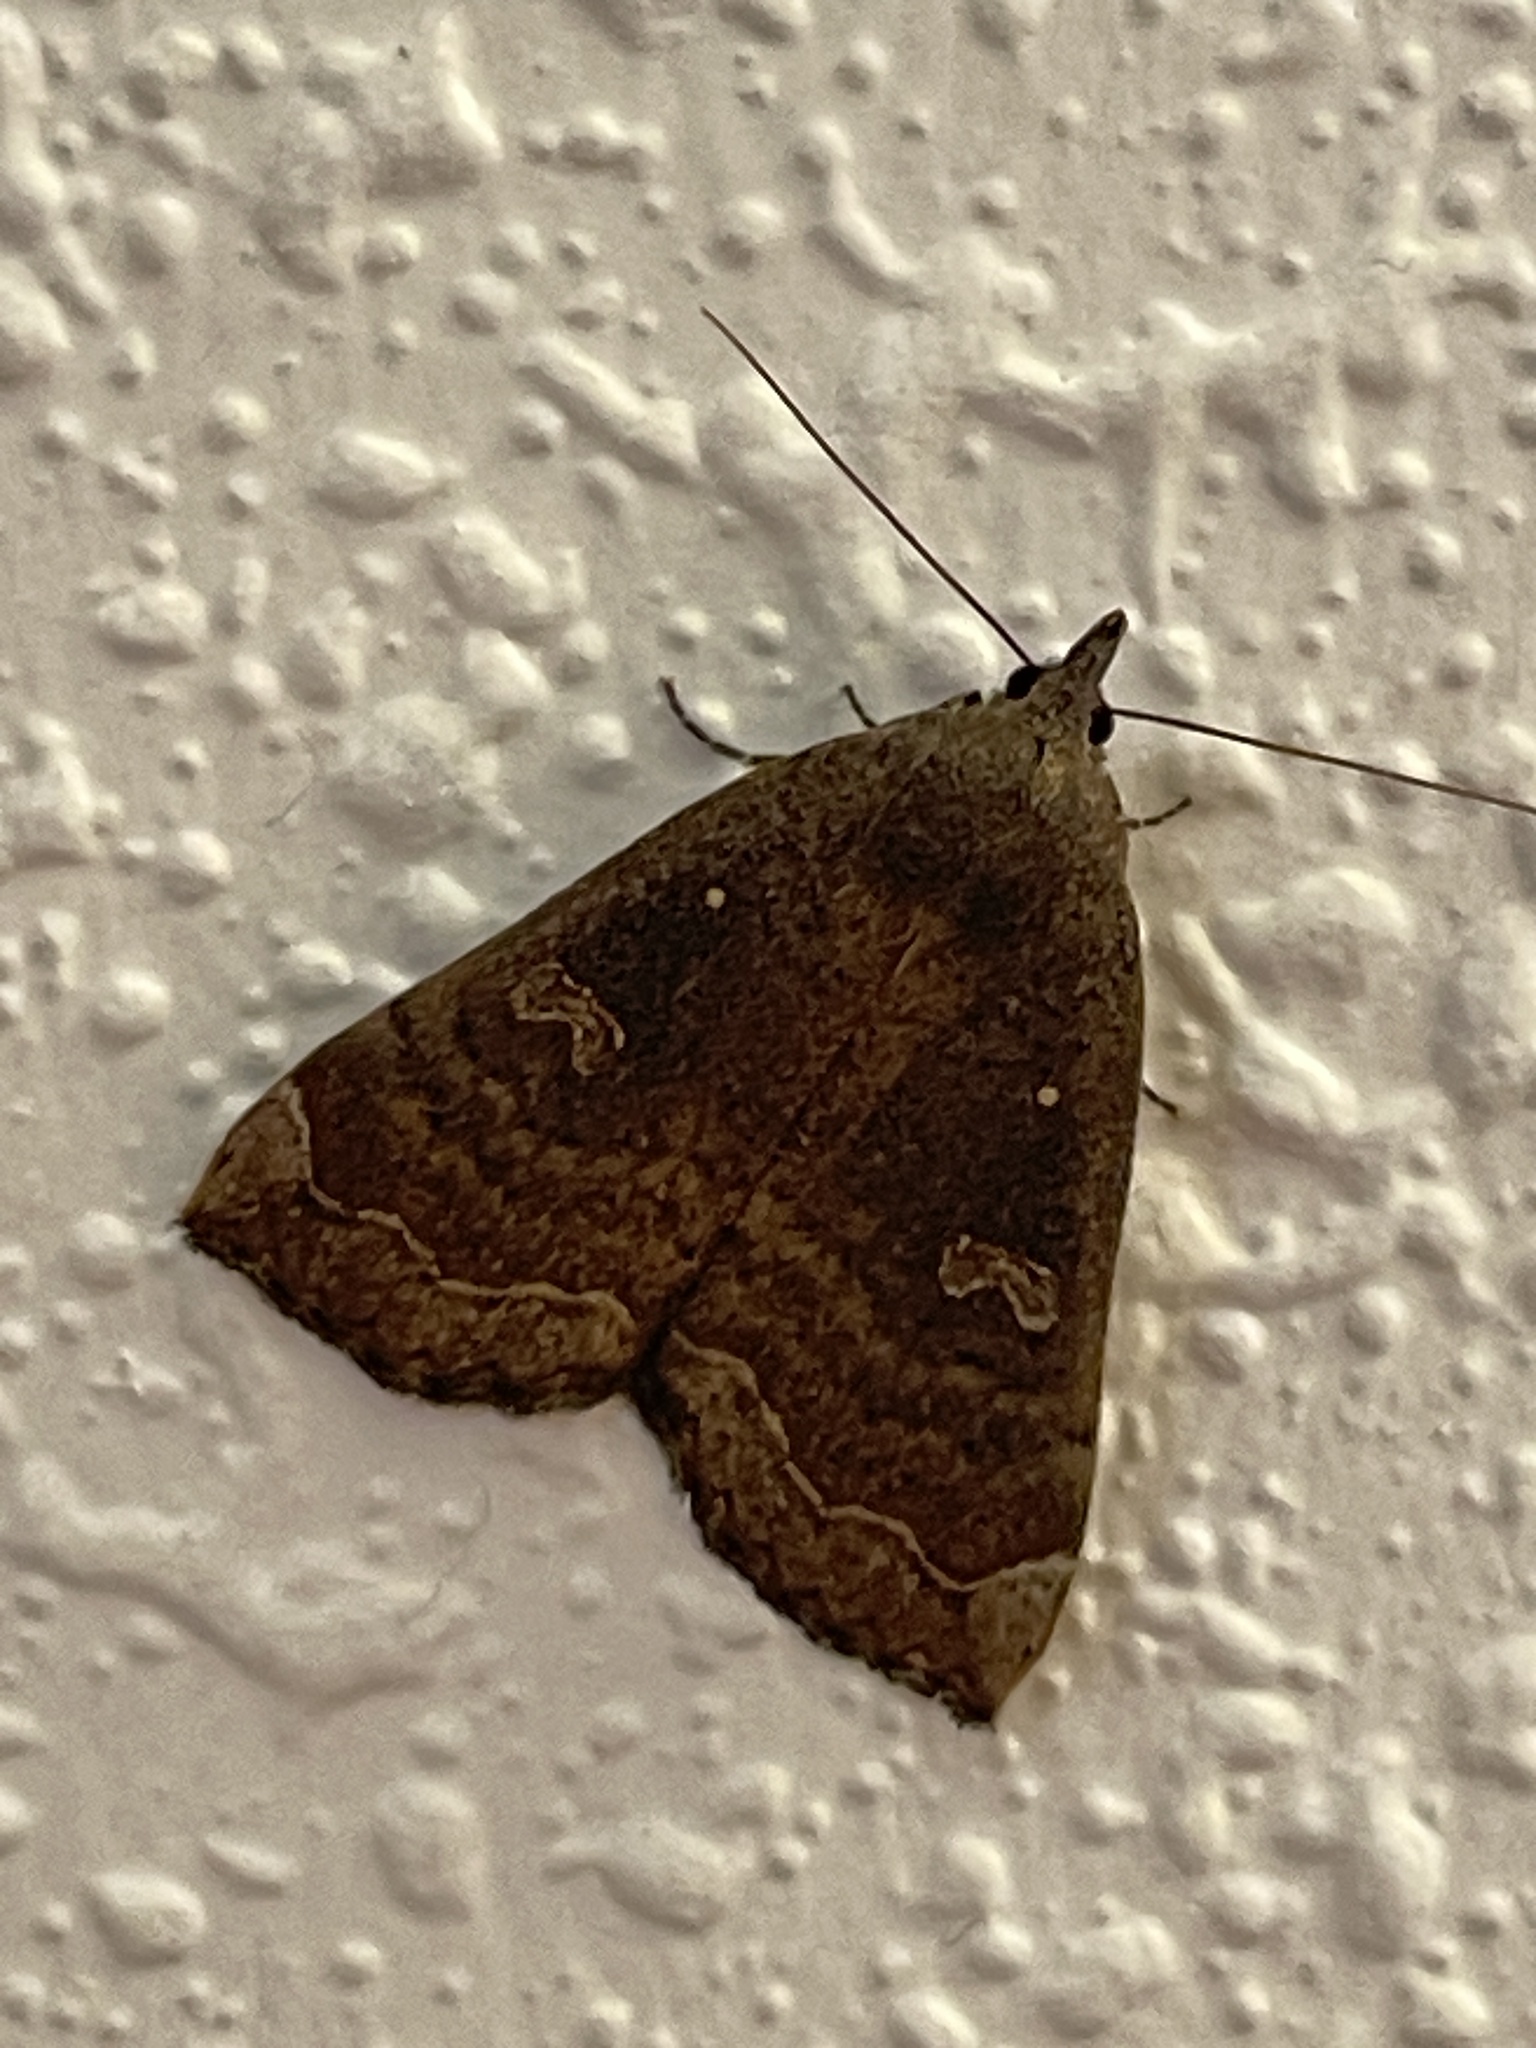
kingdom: Animalia
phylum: Arthropoda
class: Insecta
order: Lepidoptera
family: Erebidae
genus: Rhapsa
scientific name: Rhapsa scotosialis
